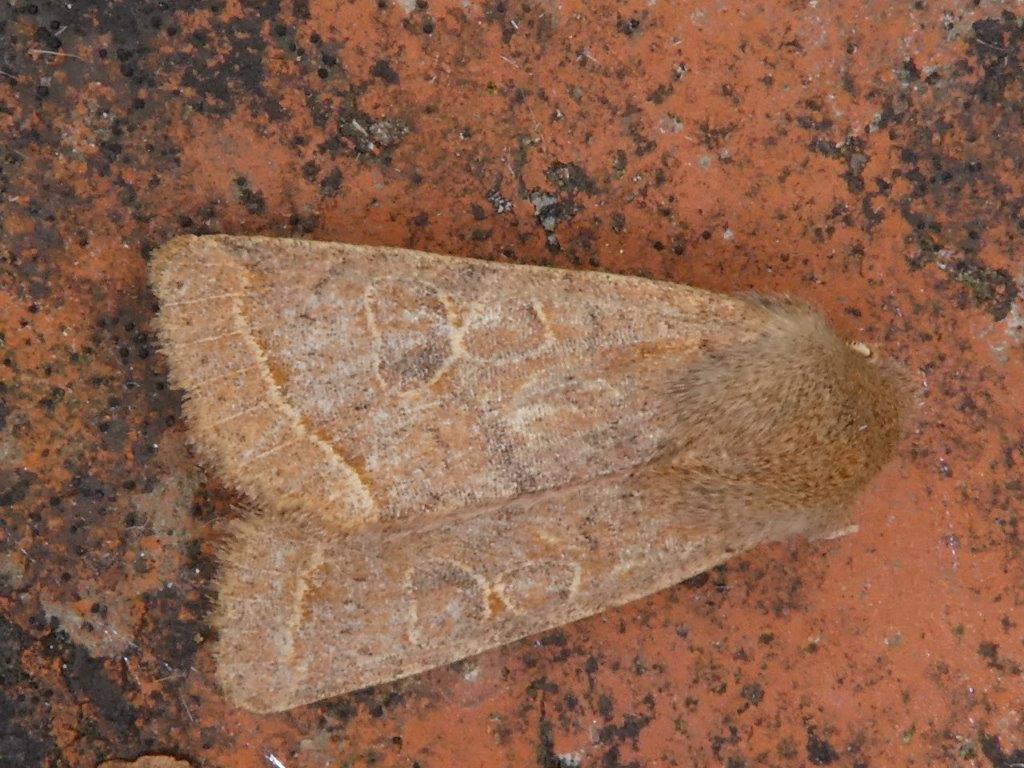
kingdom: Animalia
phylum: Arthropoda
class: Insecta
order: Lepidoptera
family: Noctuidae
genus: Orthosia
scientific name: Orthosia cerasi
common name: Common quaker
